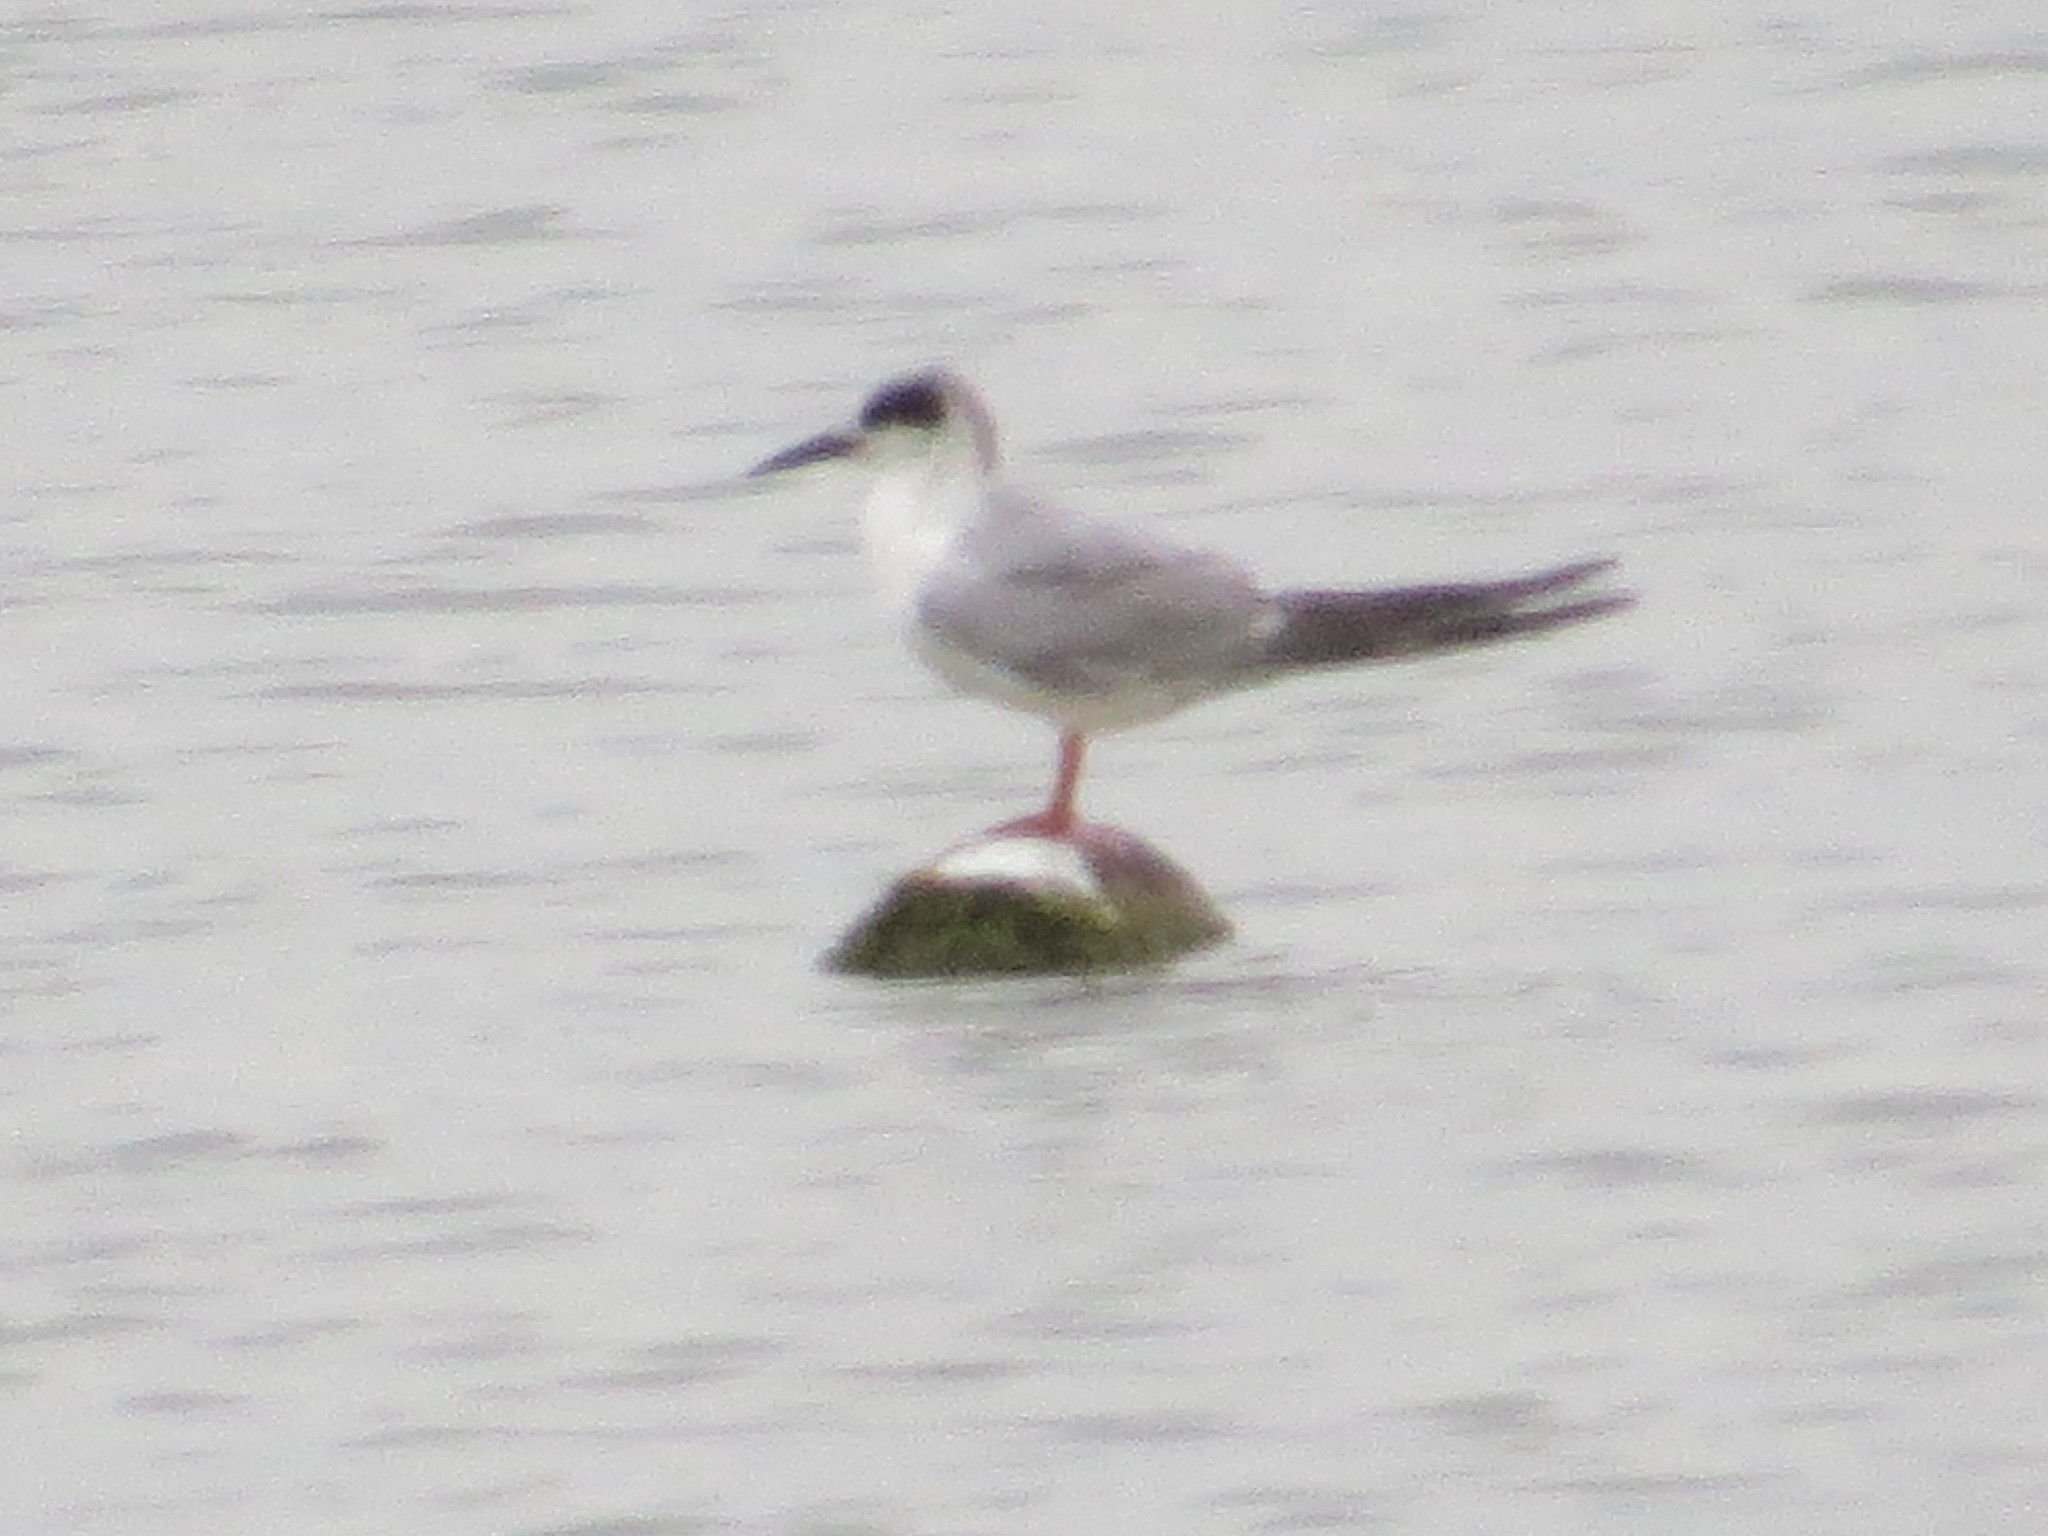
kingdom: Animalia
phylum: Chordata
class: Aves
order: Charadriiformes
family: Laridae
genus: Sterna
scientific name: Sterna forsteri
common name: Forster's tern
